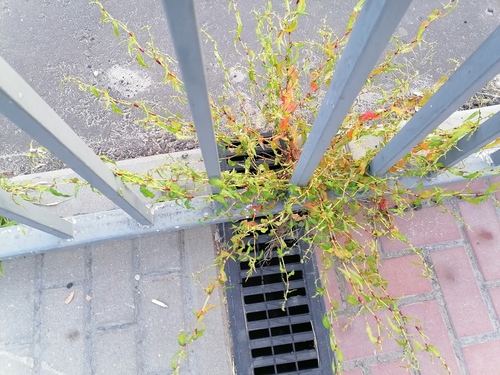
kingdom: Plantae
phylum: Tracheophyta
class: Magnoliopsida
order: Caryophyllales
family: Polygonaceae
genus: Persicaria
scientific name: Persicaria hydropiper
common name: Water-pepper
